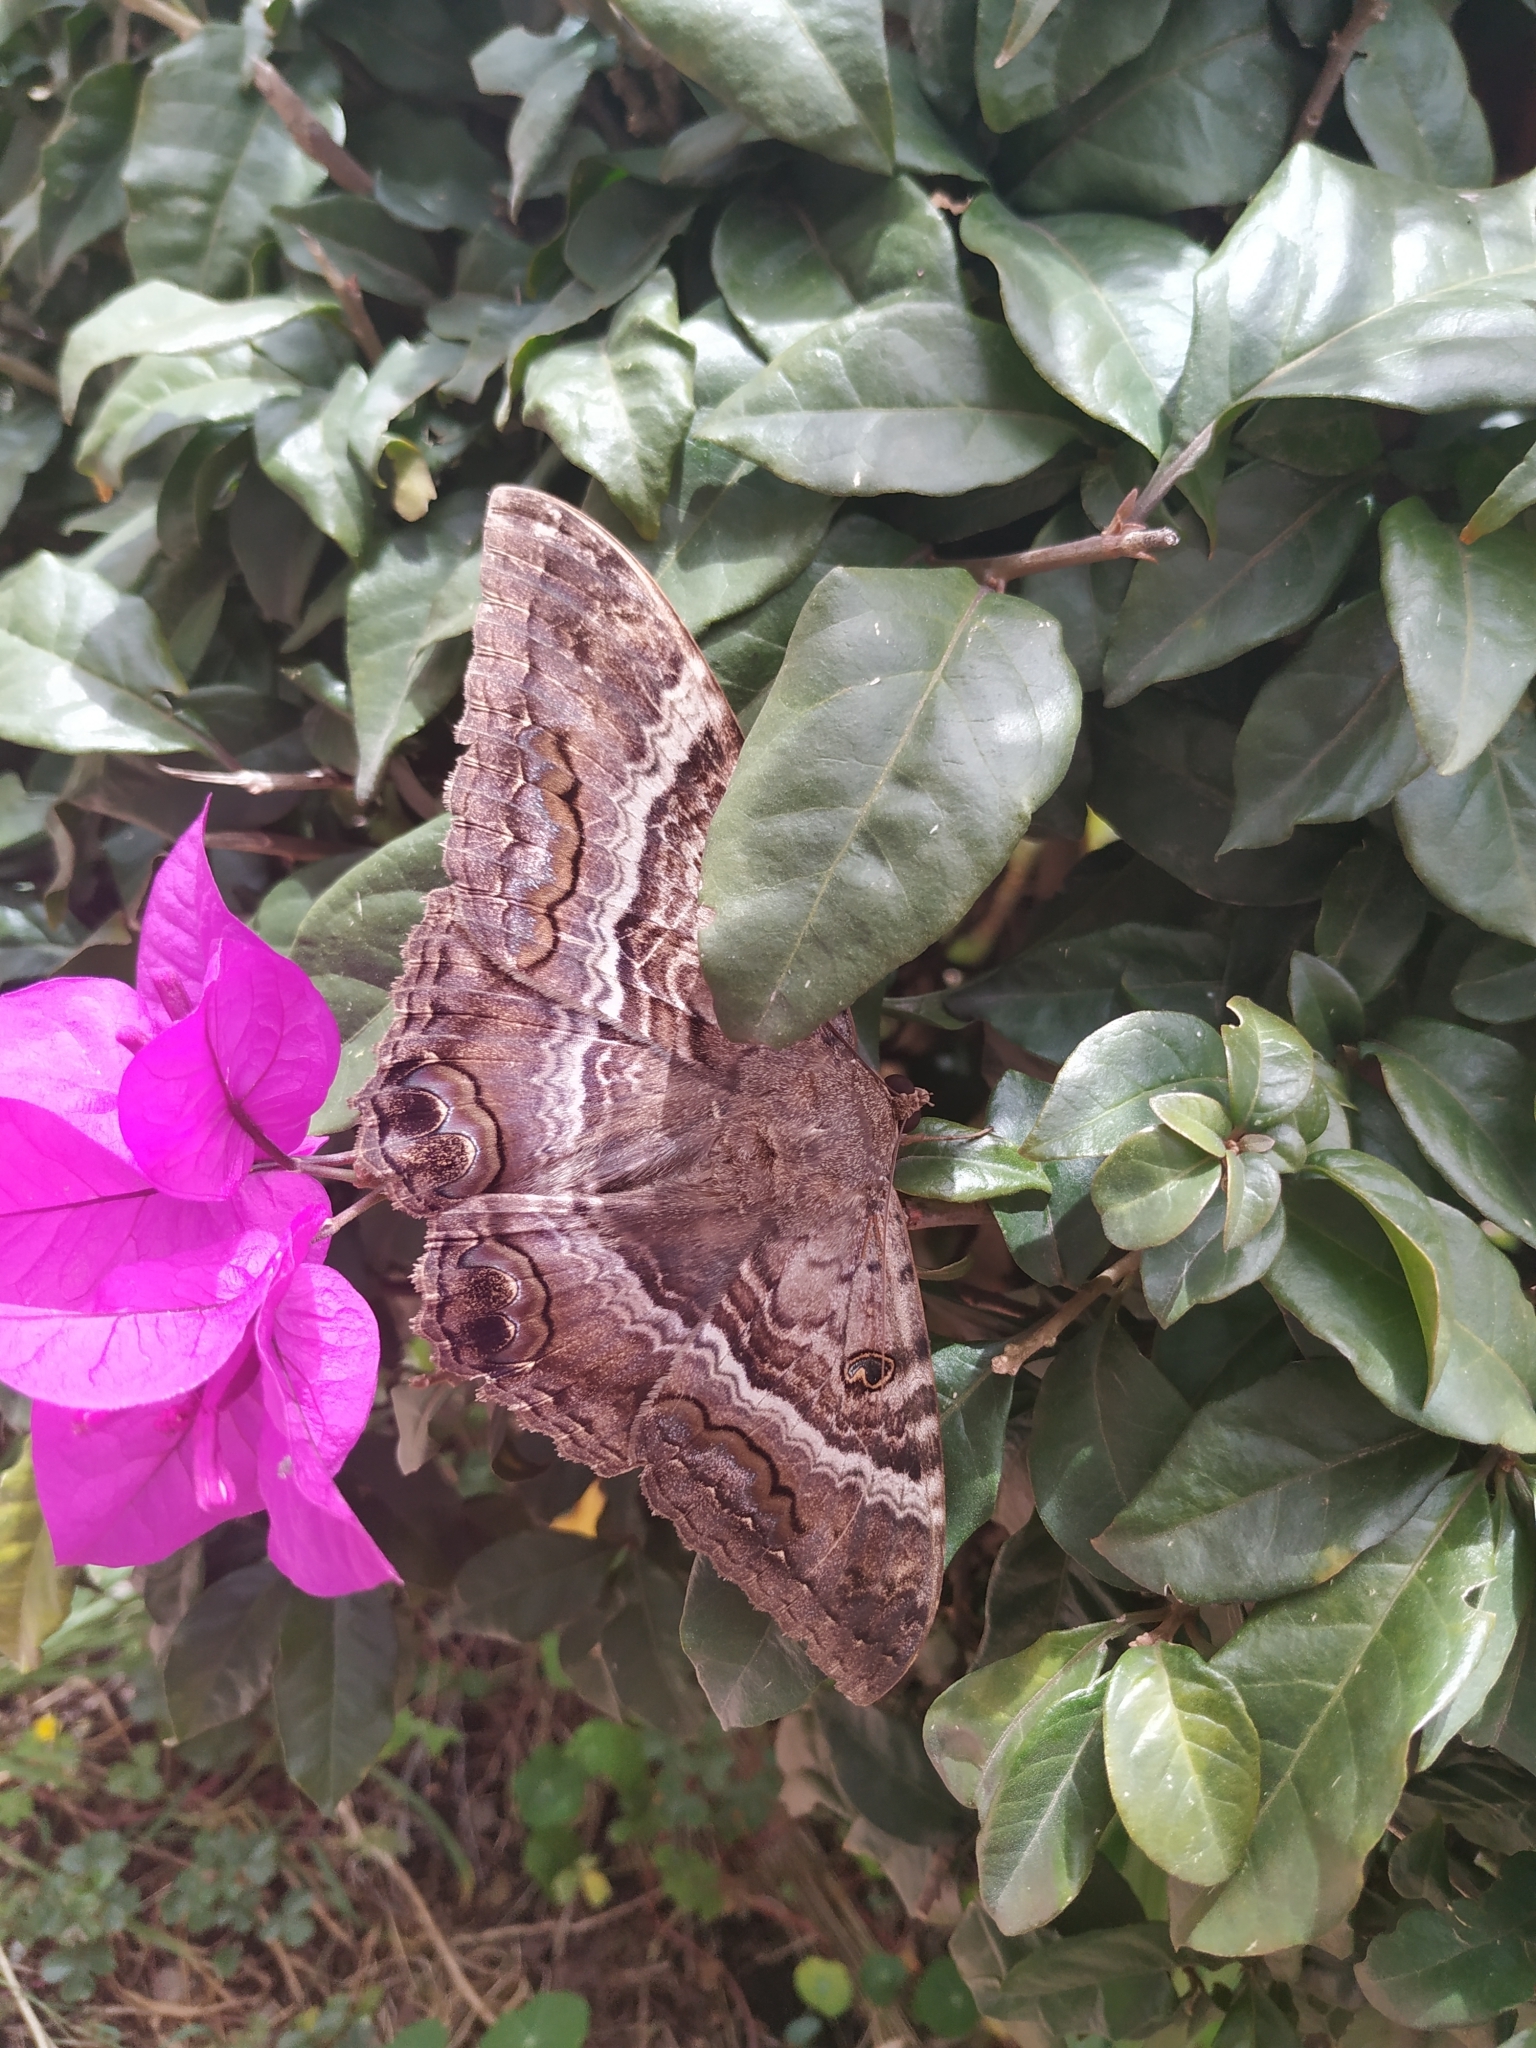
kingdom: Animalia
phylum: Arthropoda
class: Insecta
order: Lepidoptera
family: Erebidae
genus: Ascalapha
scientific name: Ascalapha odorata
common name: Black witch
